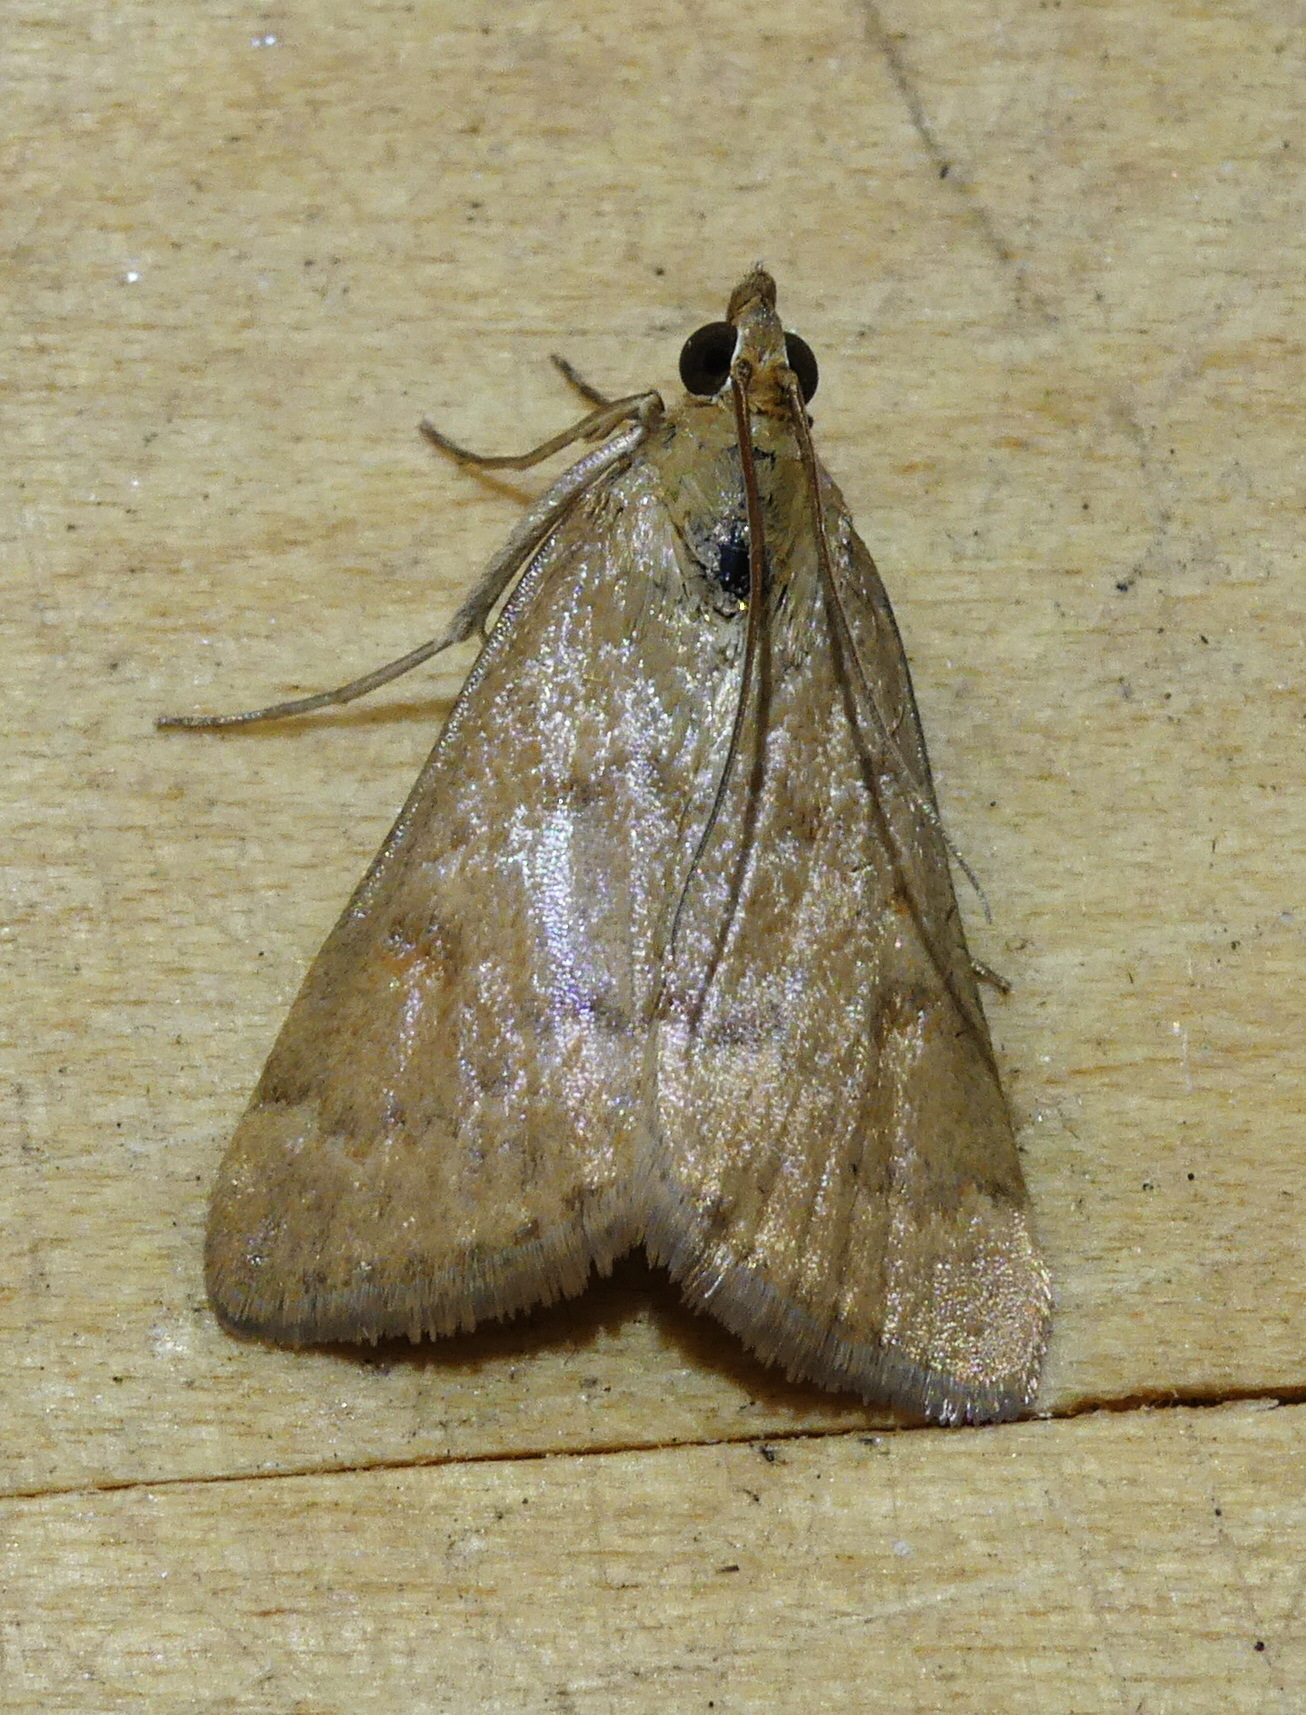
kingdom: Animalia
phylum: Arthropoda
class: Insecta
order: Lepidoptera
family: Crambidae
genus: Achyra
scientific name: Achyra rantalis
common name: Garden webworm
